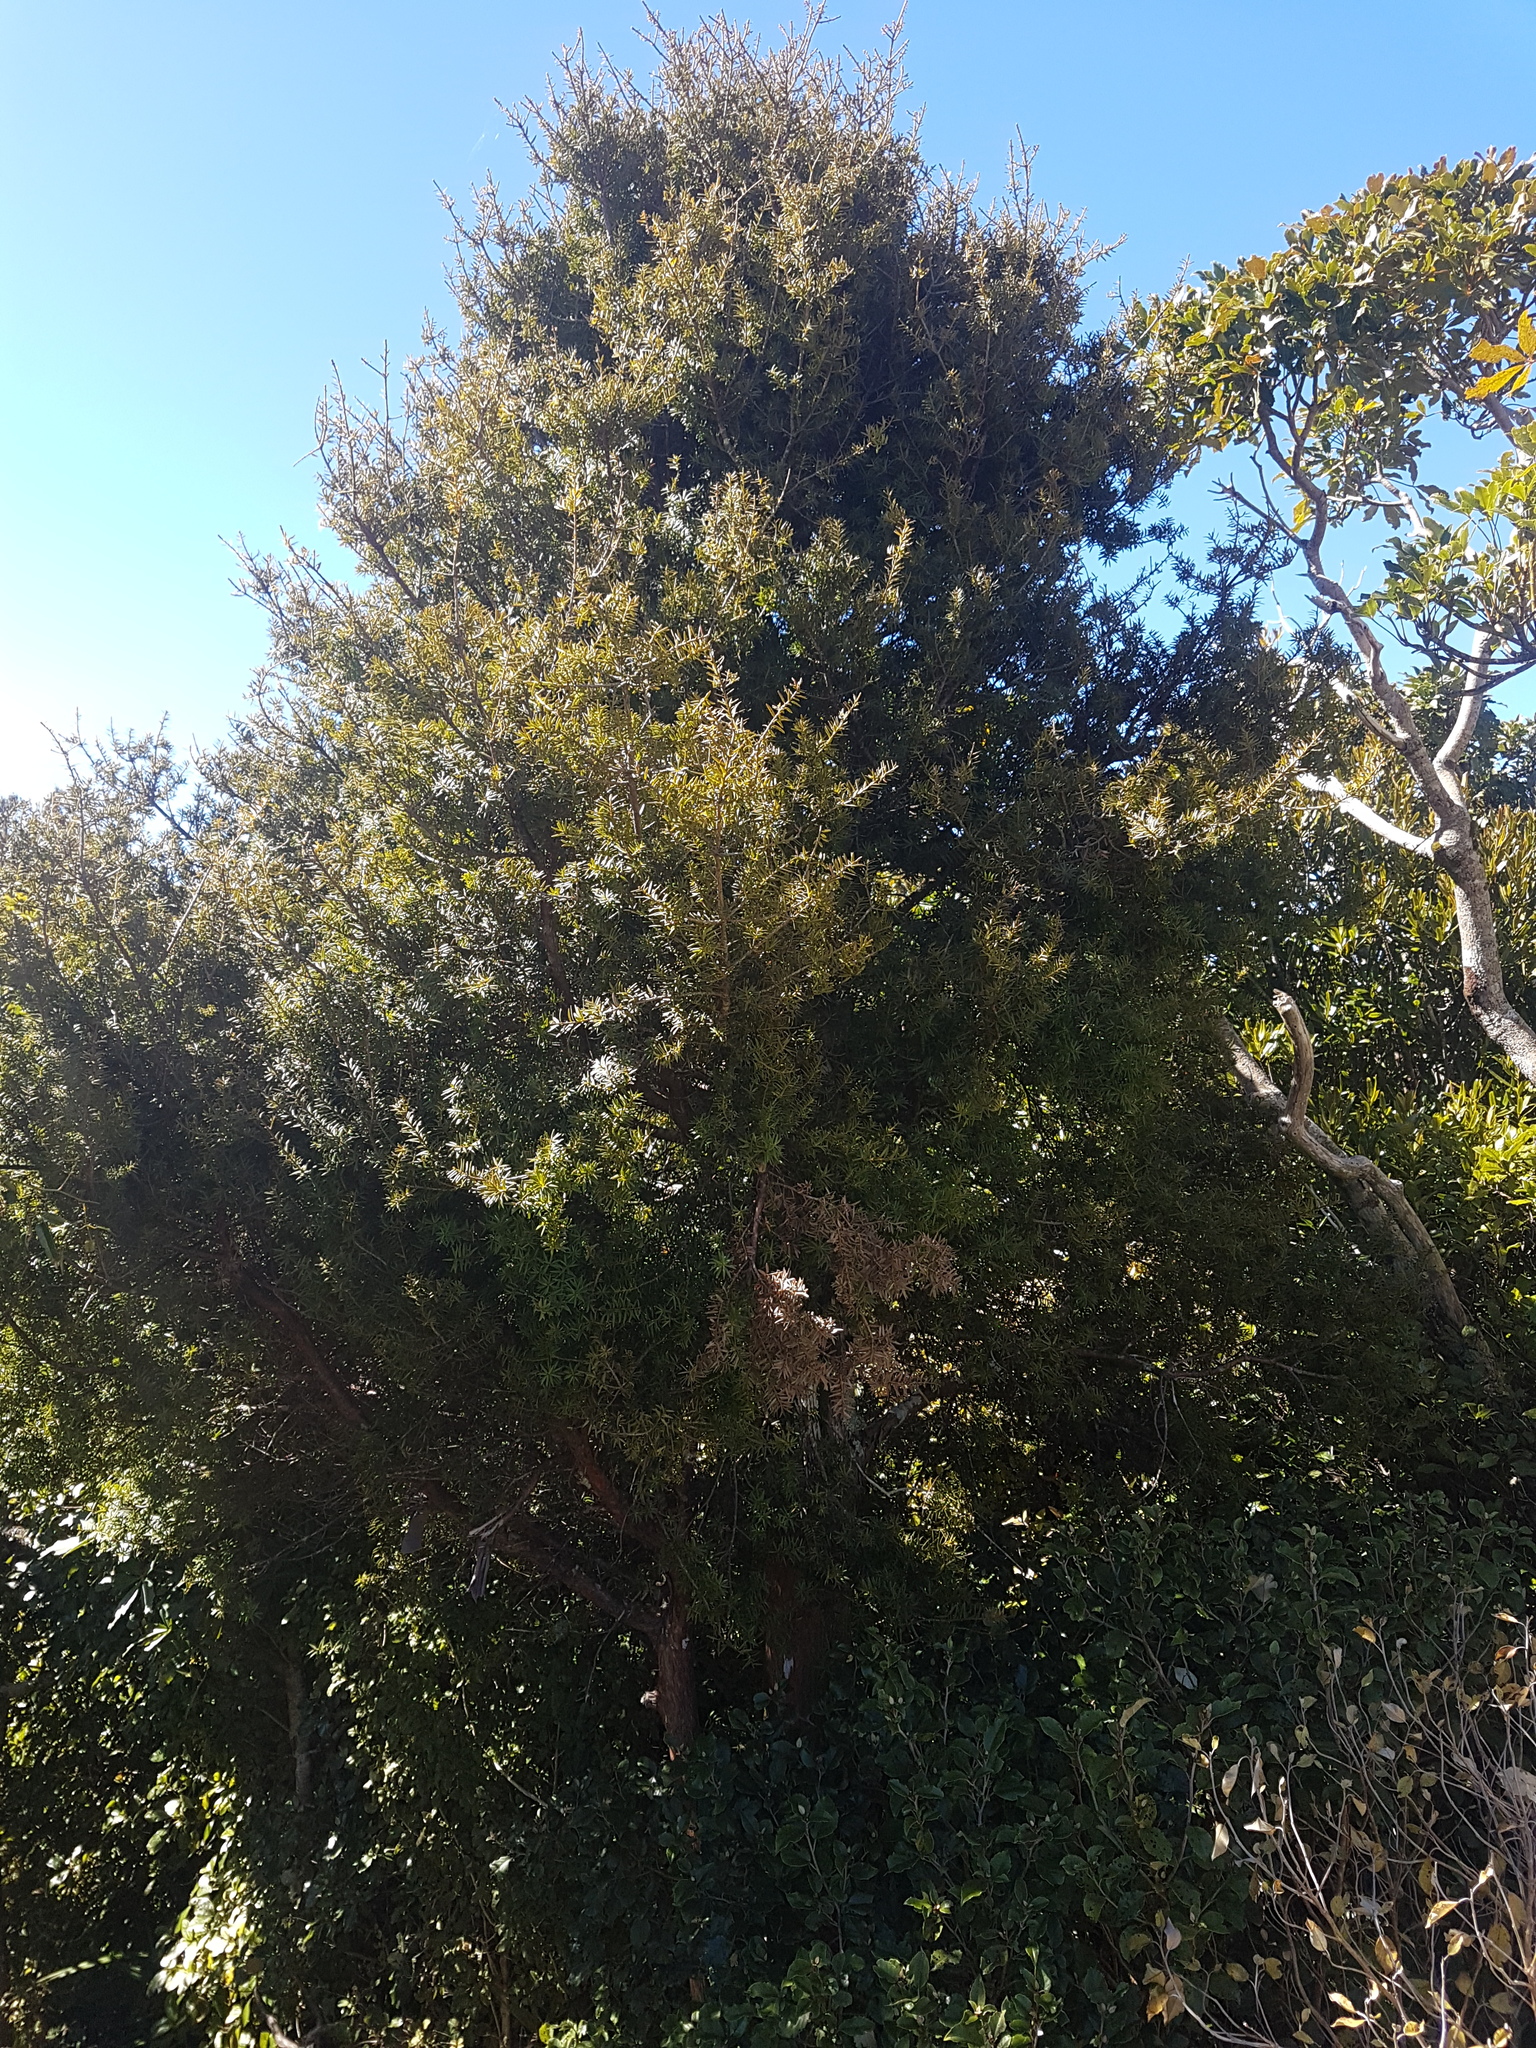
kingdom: Plantae
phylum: Tracheophyta
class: Pinopsida
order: Pinales
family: Podocarpaceae
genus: Podocarpus
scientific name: Podocarpus laetus
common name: Hall's totara
